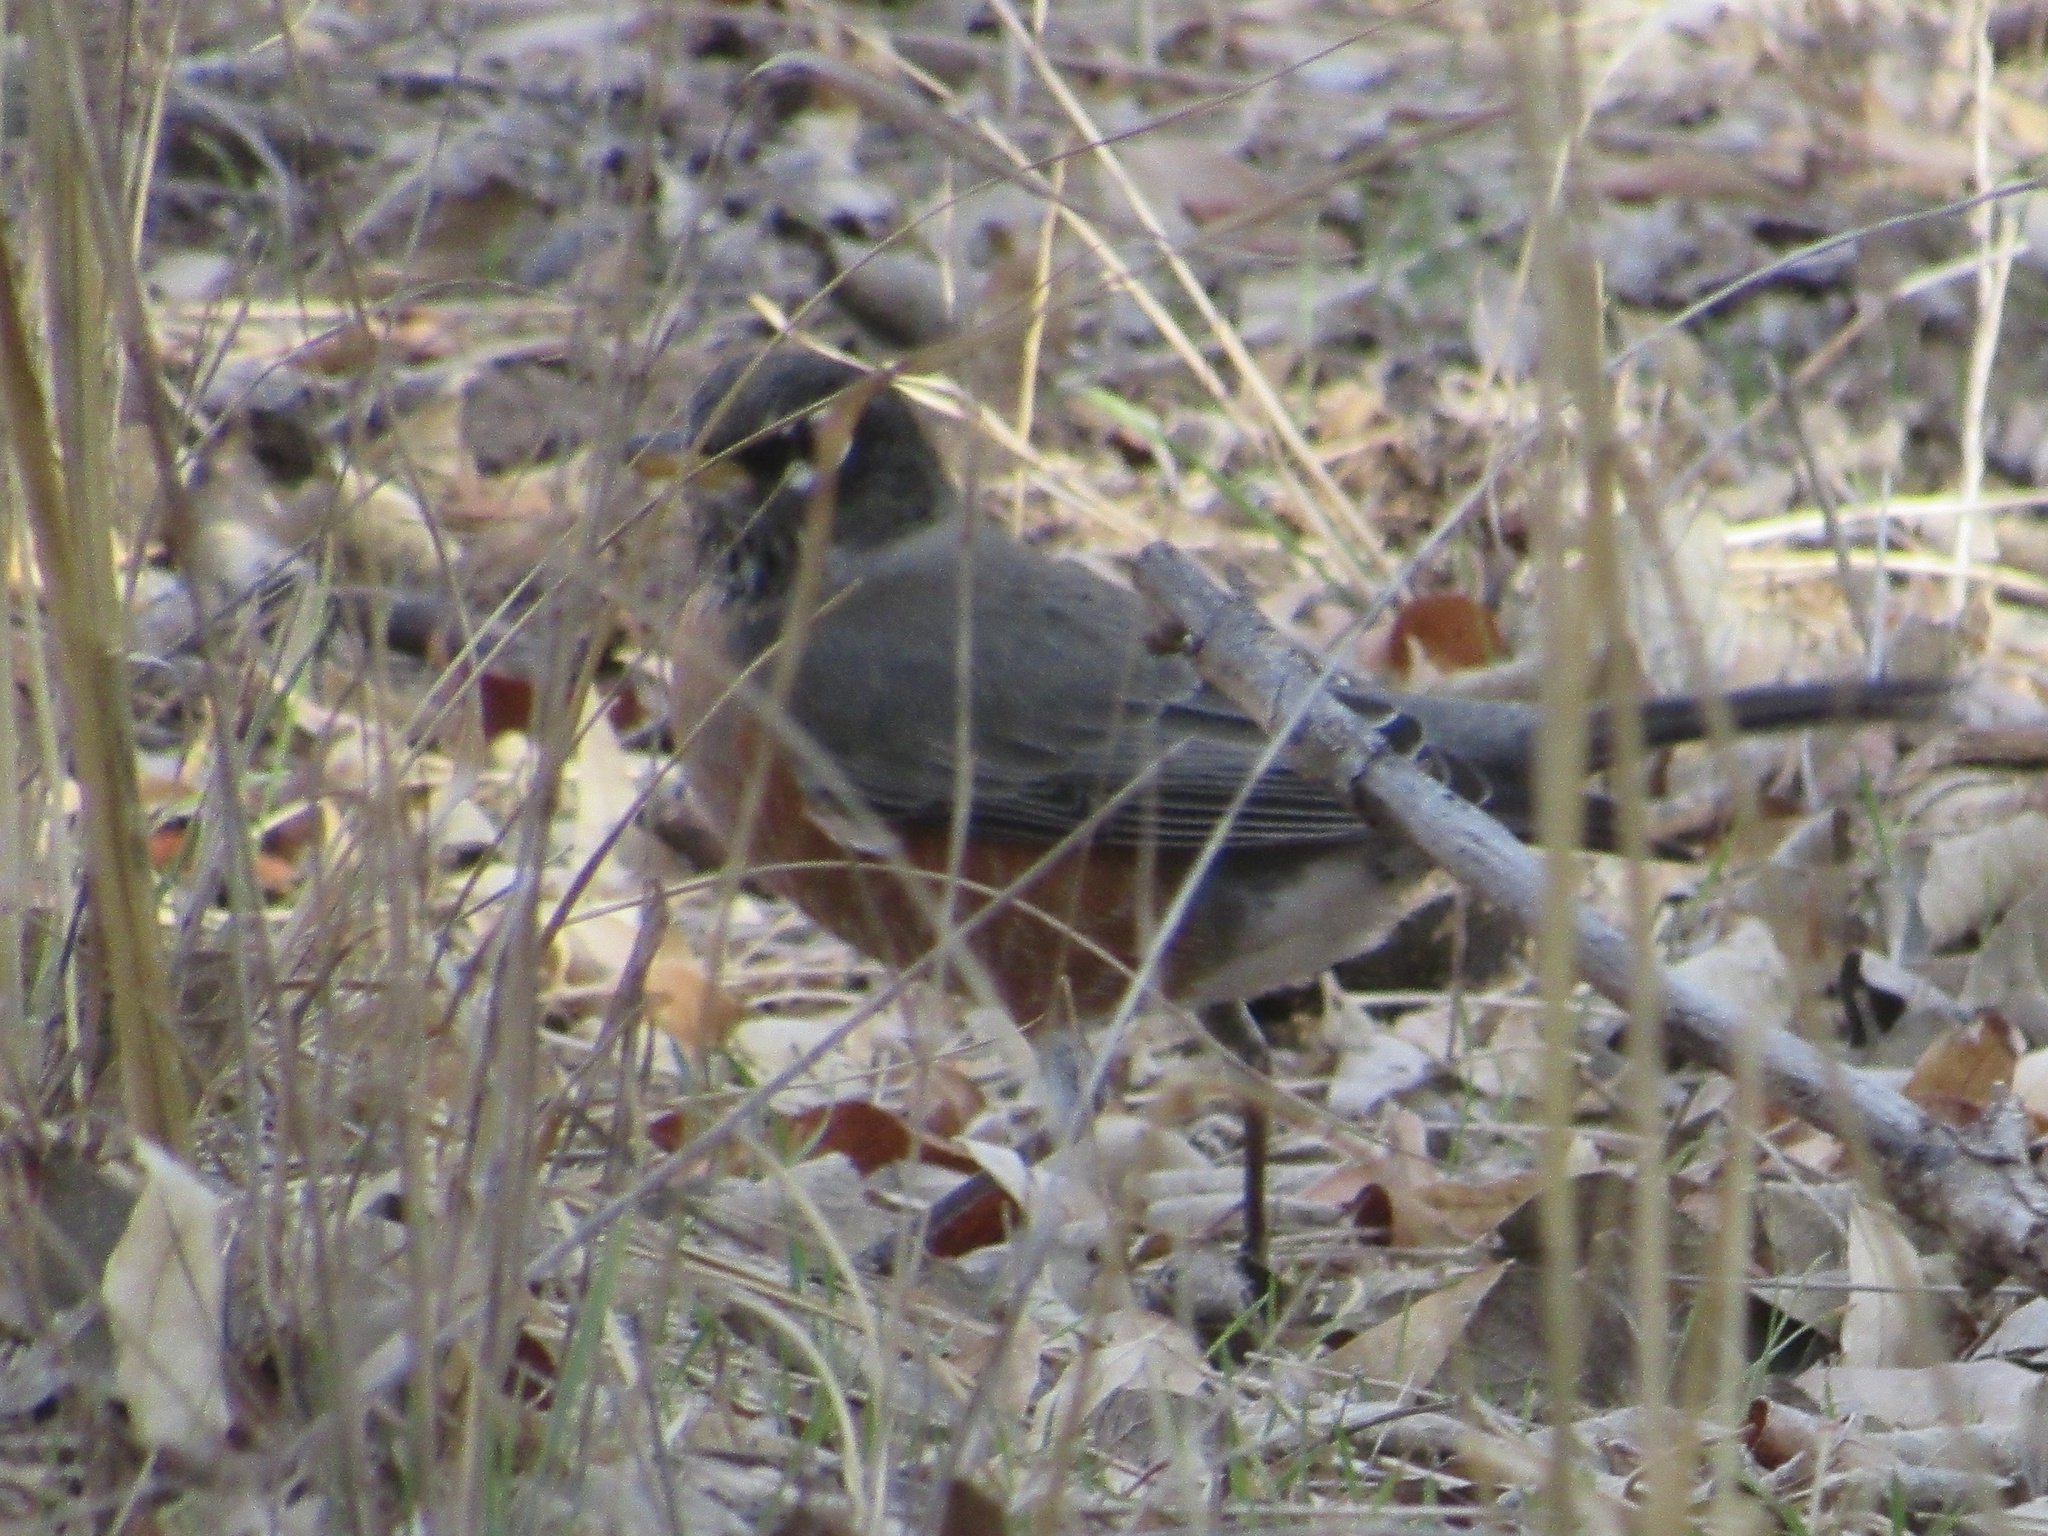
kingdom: Animalia
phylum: Chordata
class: Aves
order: Passeriformes
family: Turdidae
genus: Turdus
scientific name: Turdus migratorius
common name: American robin
